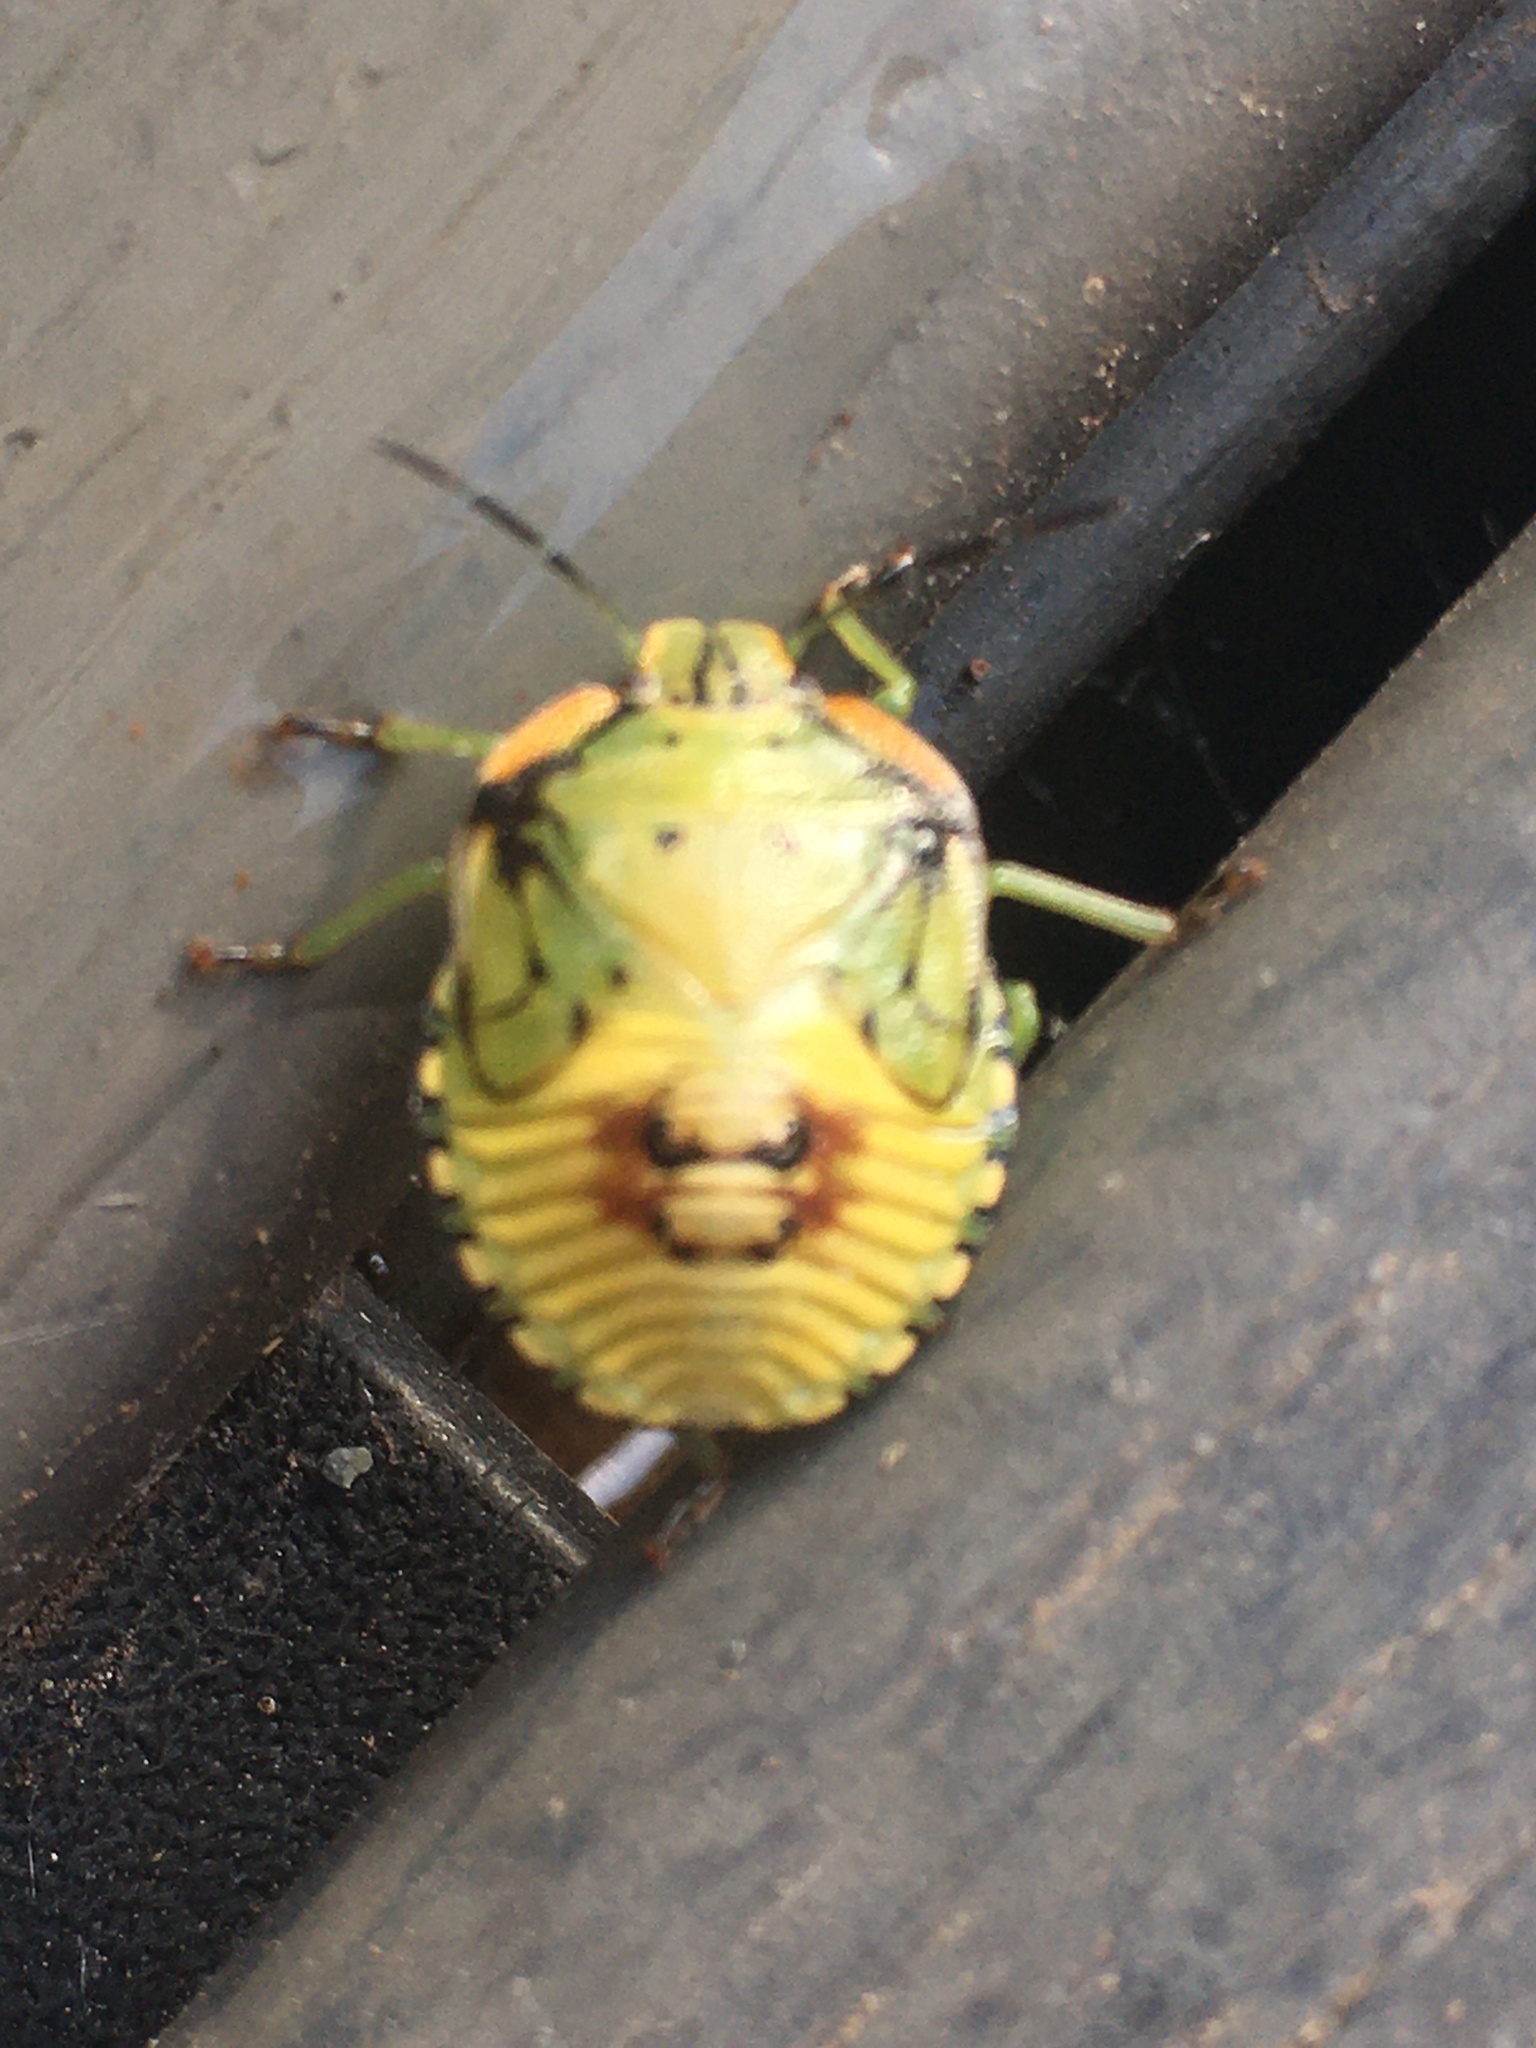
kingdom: Animalia
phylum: Arthropoda
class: Insecta
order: Hemiptera
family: Pentatomidae
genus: Chinavia
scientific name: Chinavia hilaris
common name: Green stink bug
